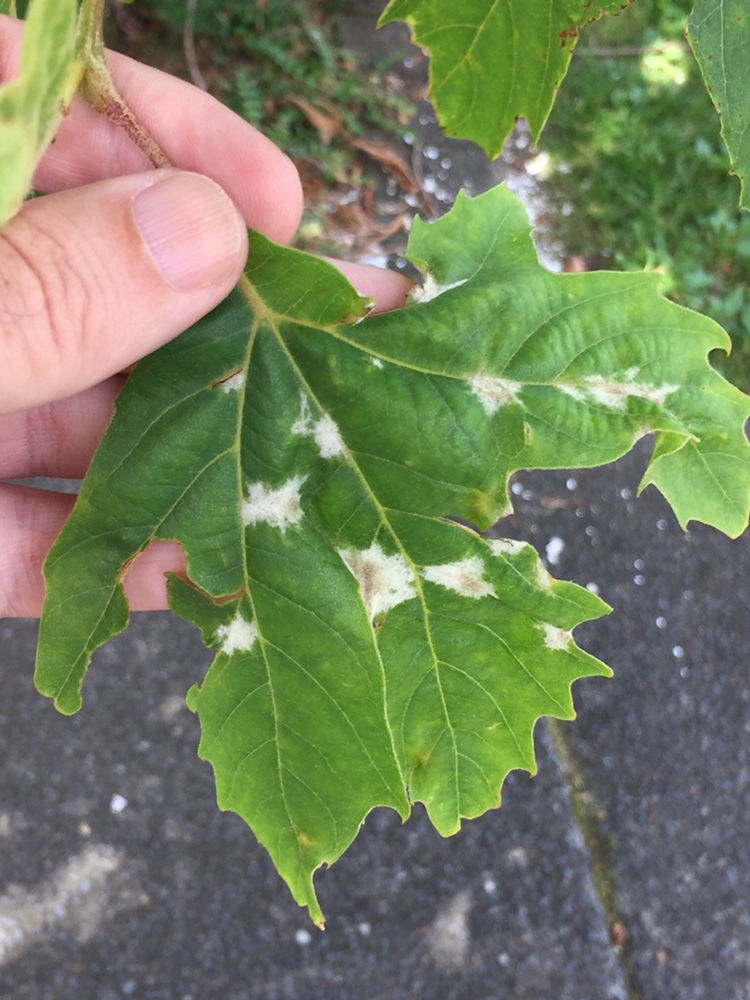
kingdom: Fungi
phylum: Ascomycota
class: Leotiomycetes
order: Helotiales
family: Erysiphaceae
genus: Erysiphe
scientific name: Erysiphe platani
